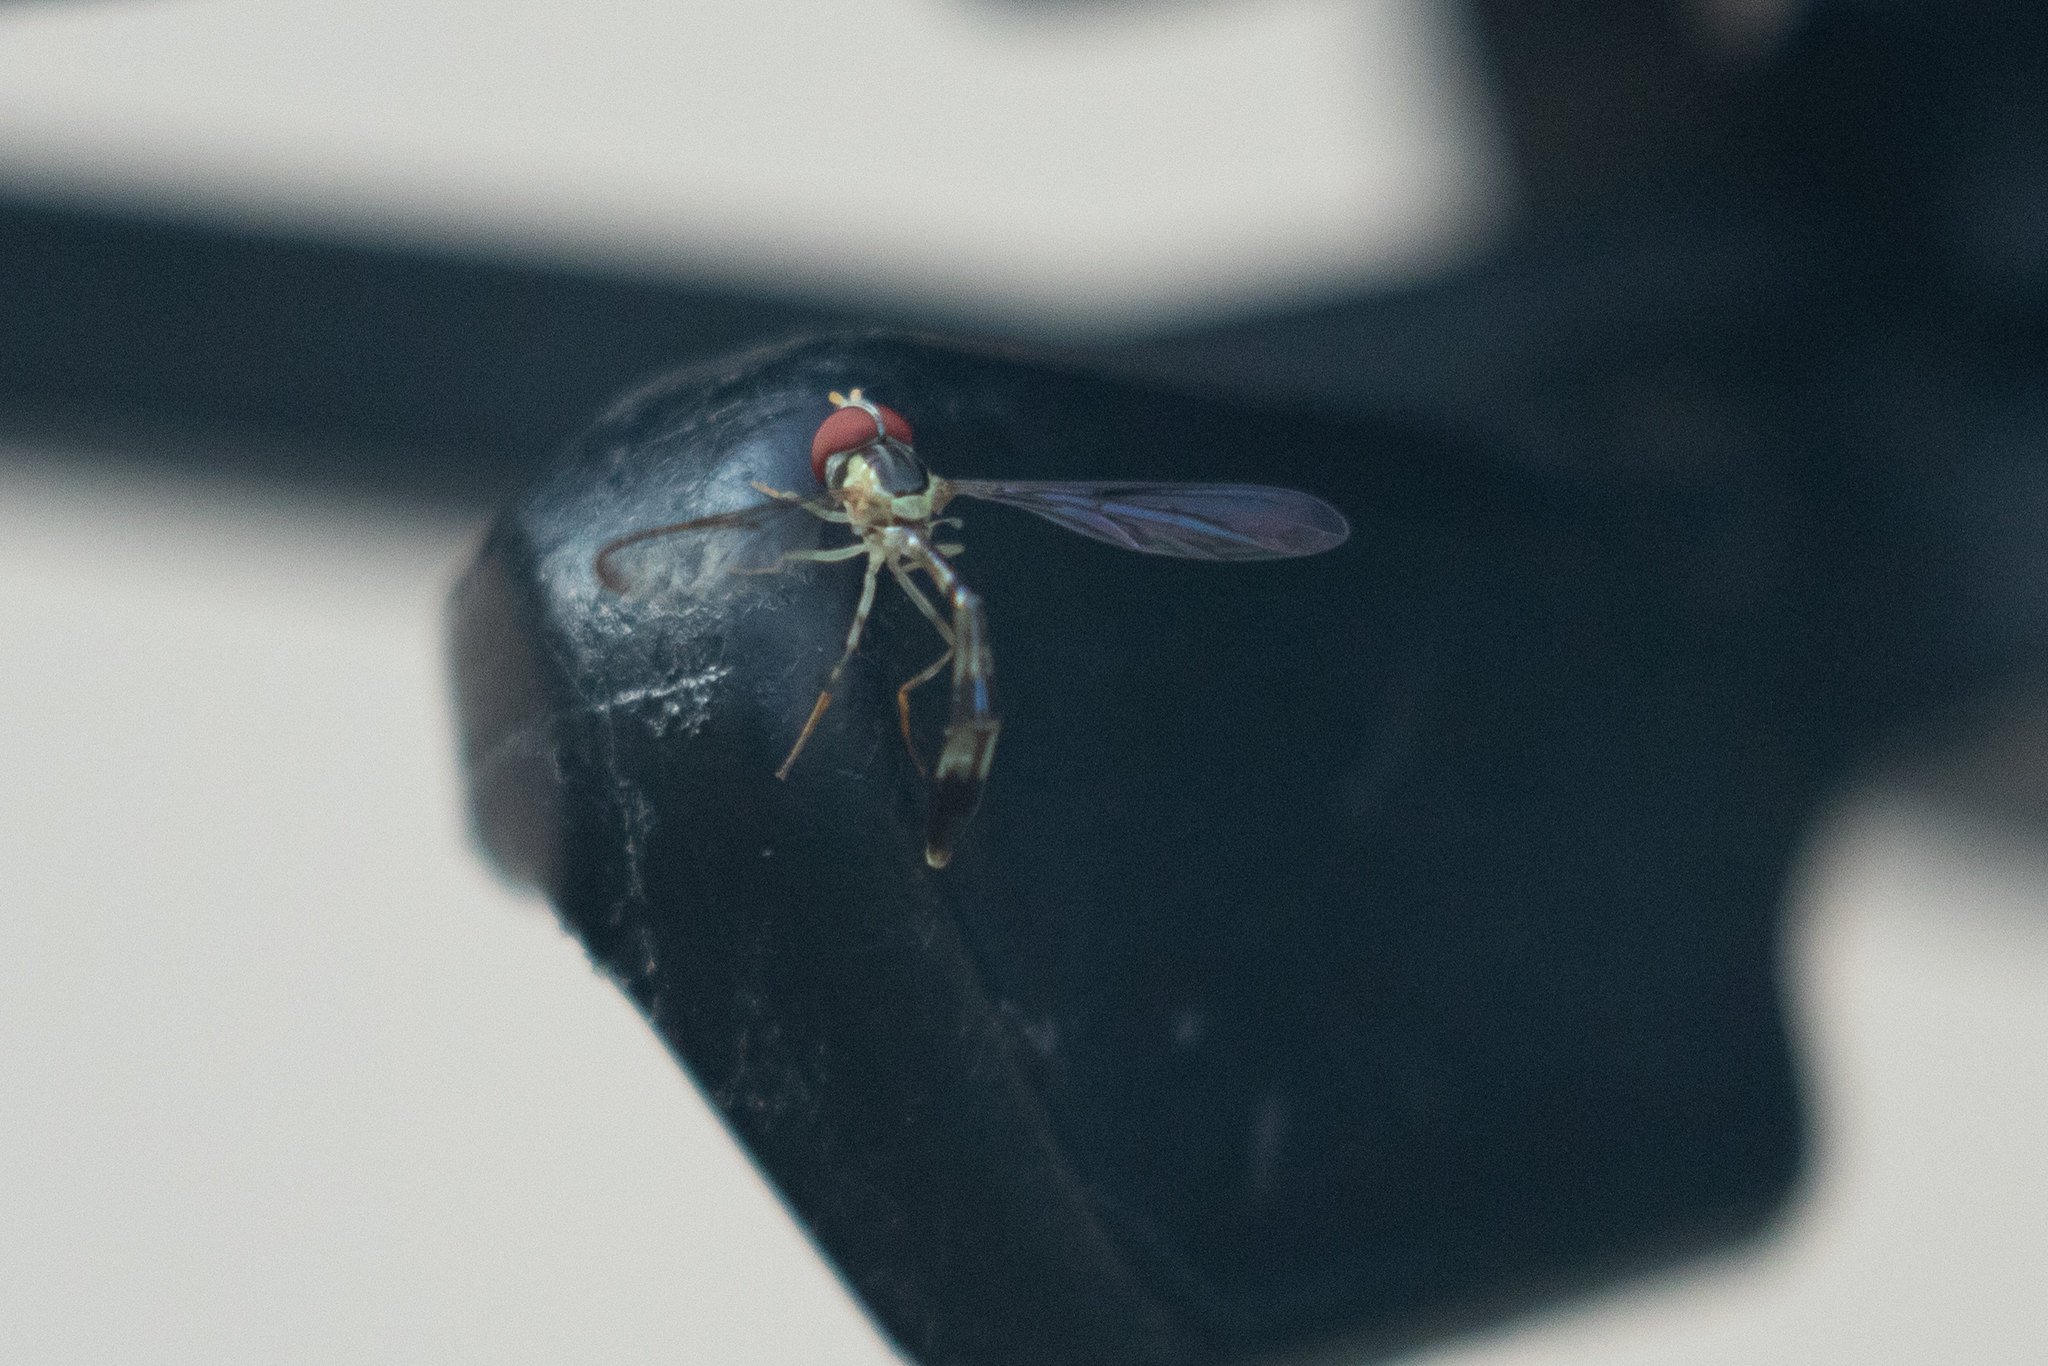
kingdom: Animalia
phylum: Arthropoda
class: Insecta
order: Diptera
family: Syrphidae
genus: Victoriana
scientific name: Victoriana attenuata
